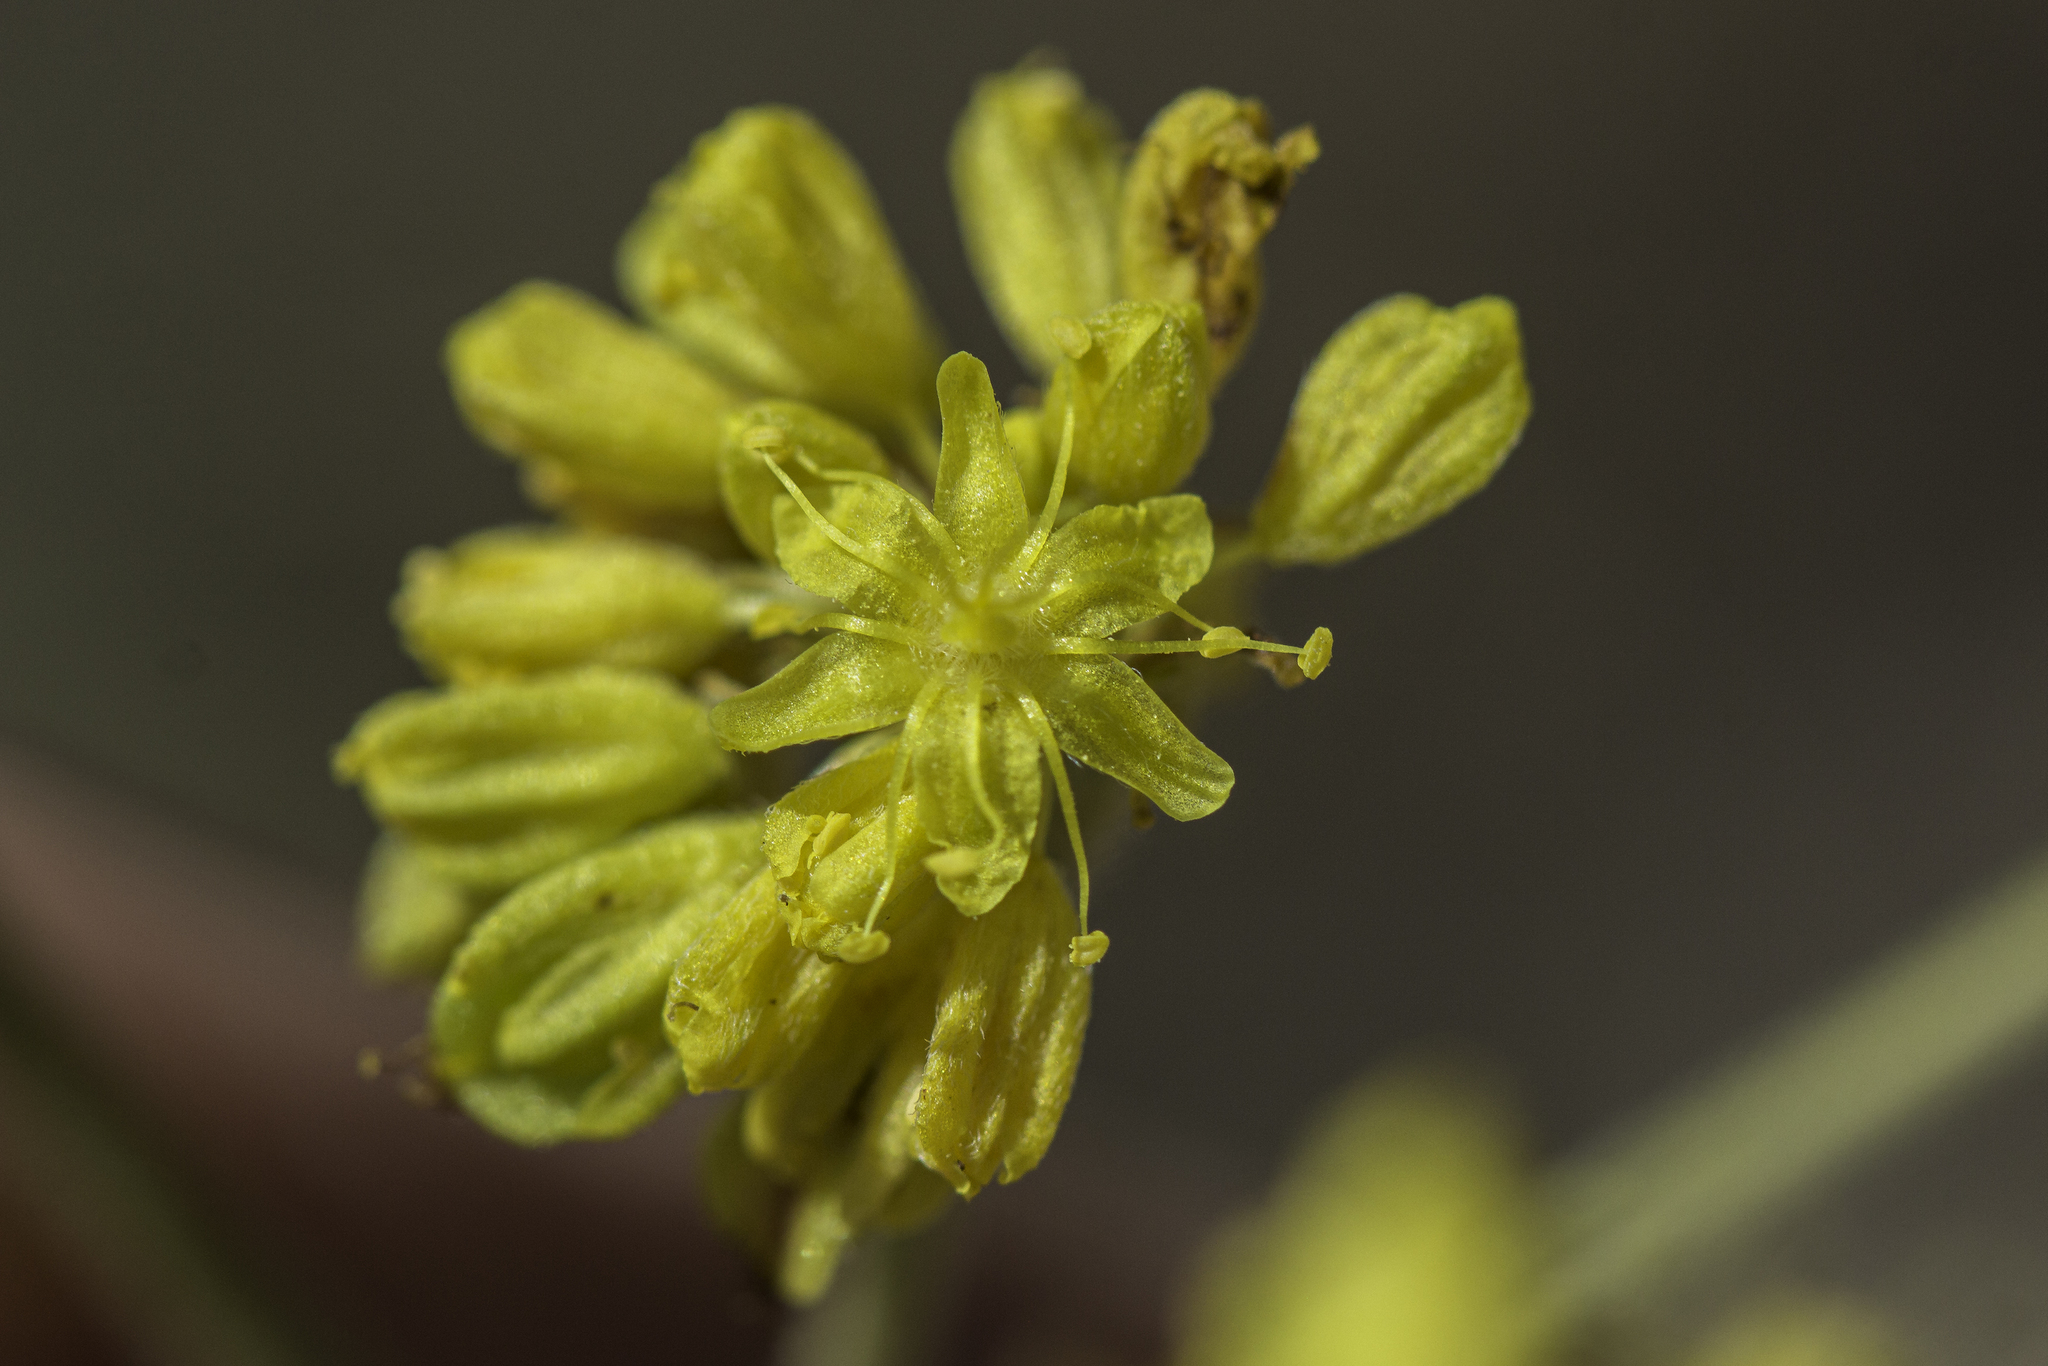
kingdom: Plantae
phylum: Tracheophyta
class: Magnoliopsida
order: Caryophyllales
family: Polygonaceae
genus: Eriogonum
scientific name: Eriogonum hieraciifolium
